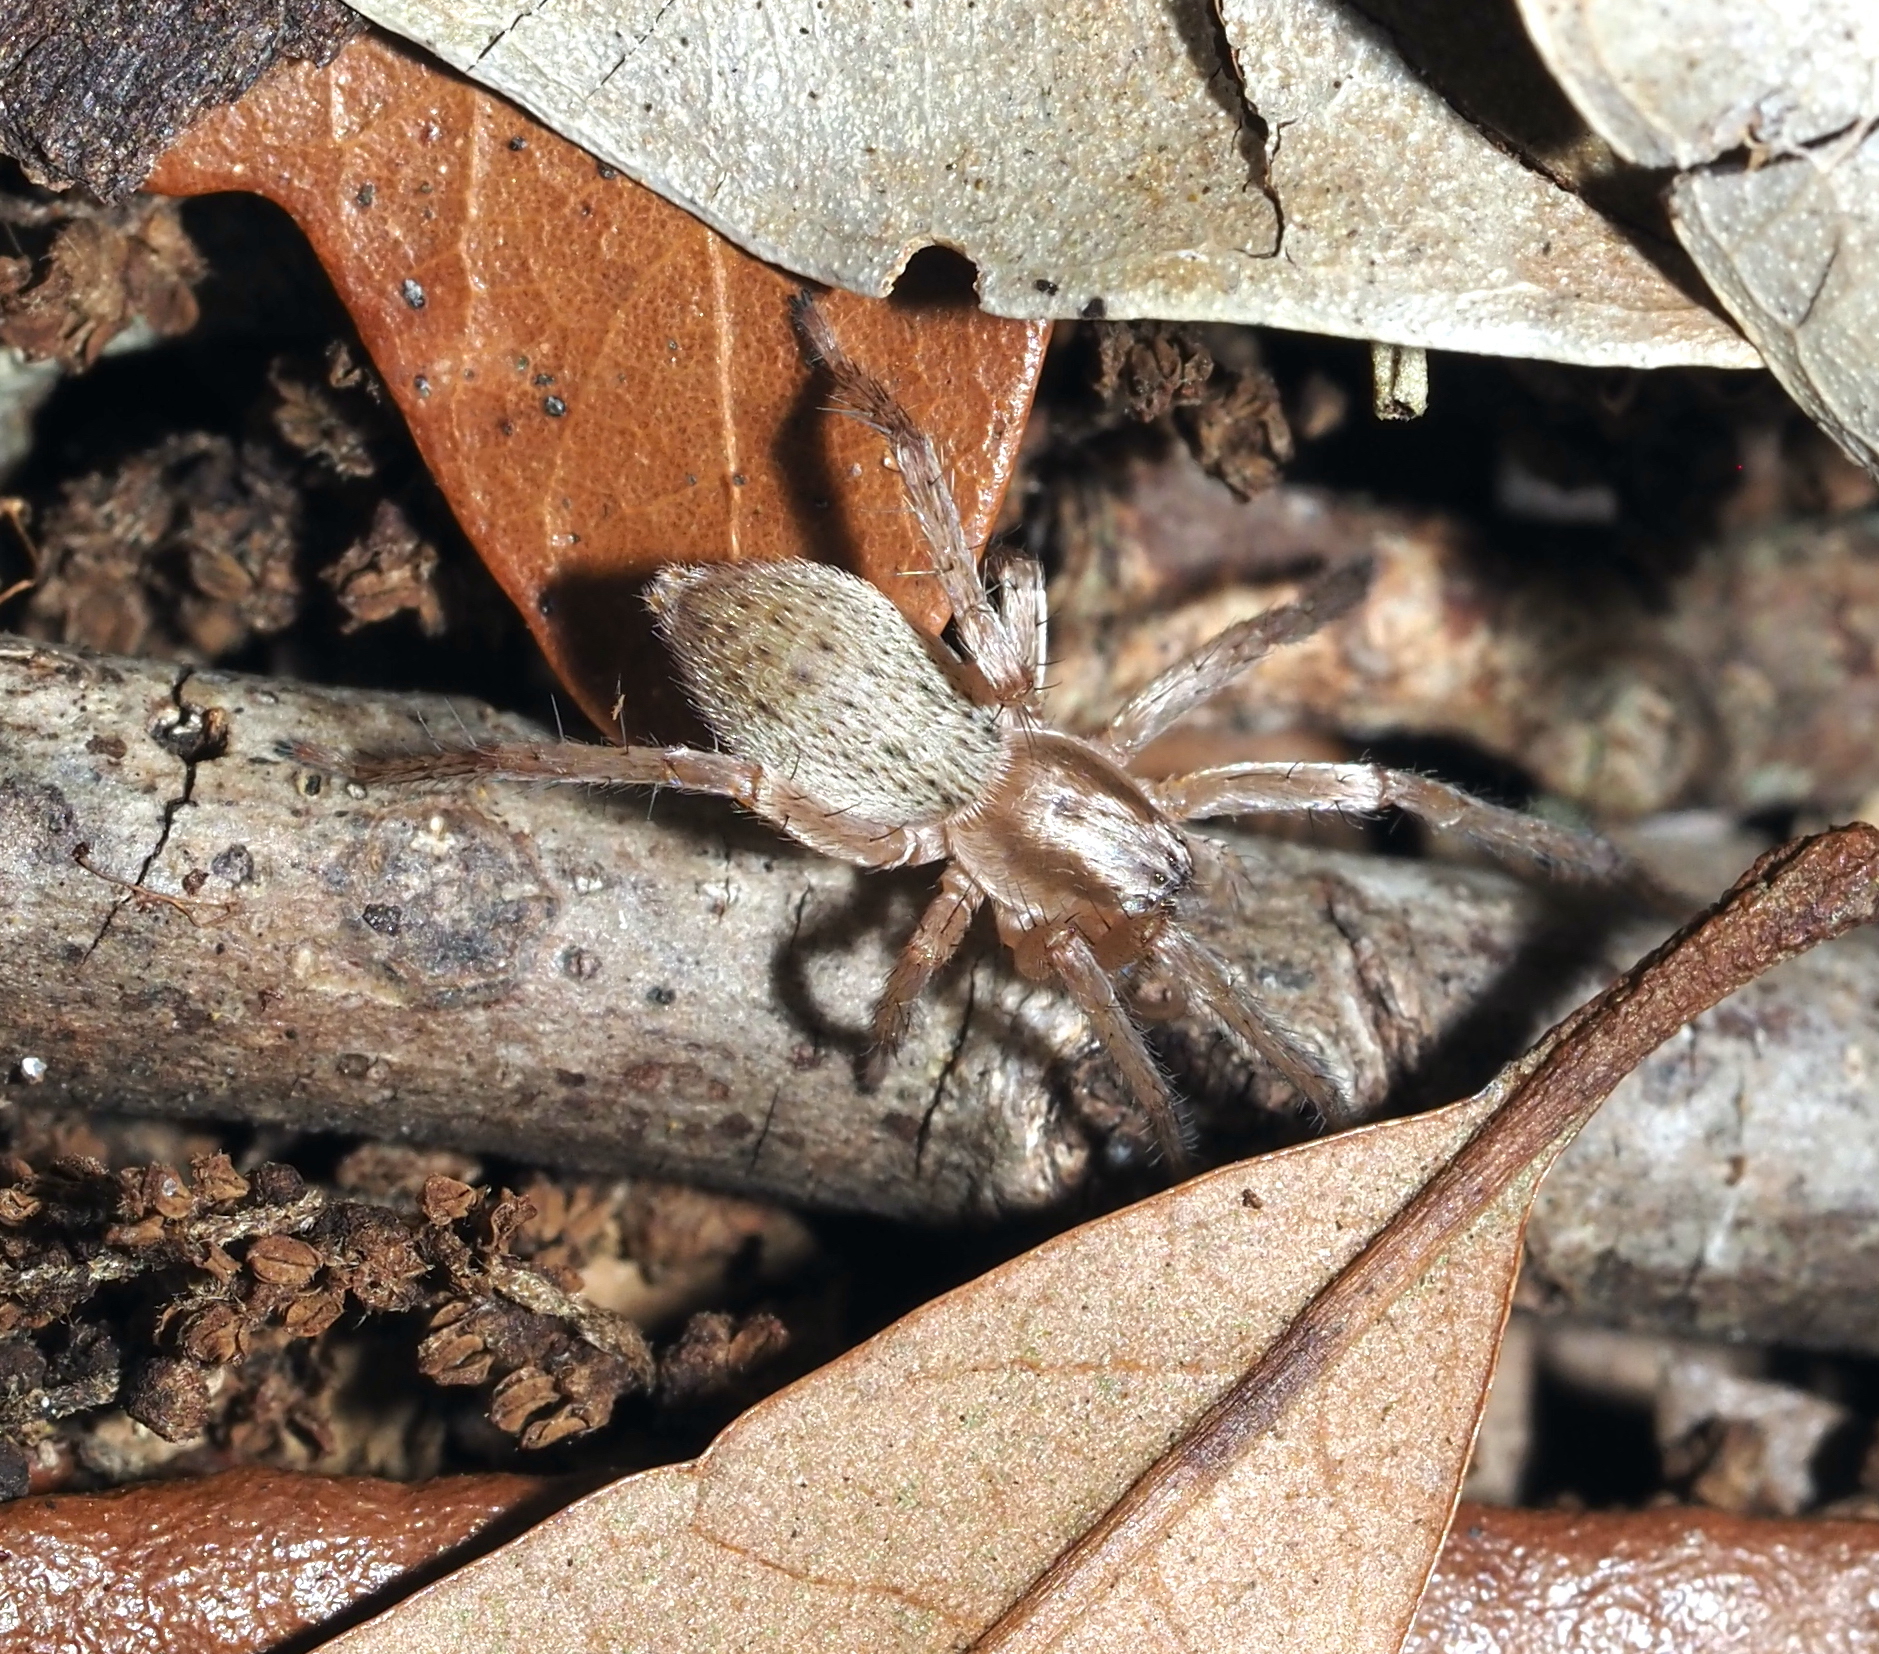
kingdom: Animalia
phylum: Arthropoda
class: Arachnida
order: Araneae
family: Anyphaenidae
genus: Hibana
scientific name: Hibana gracilis
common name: Garden ghost spider
